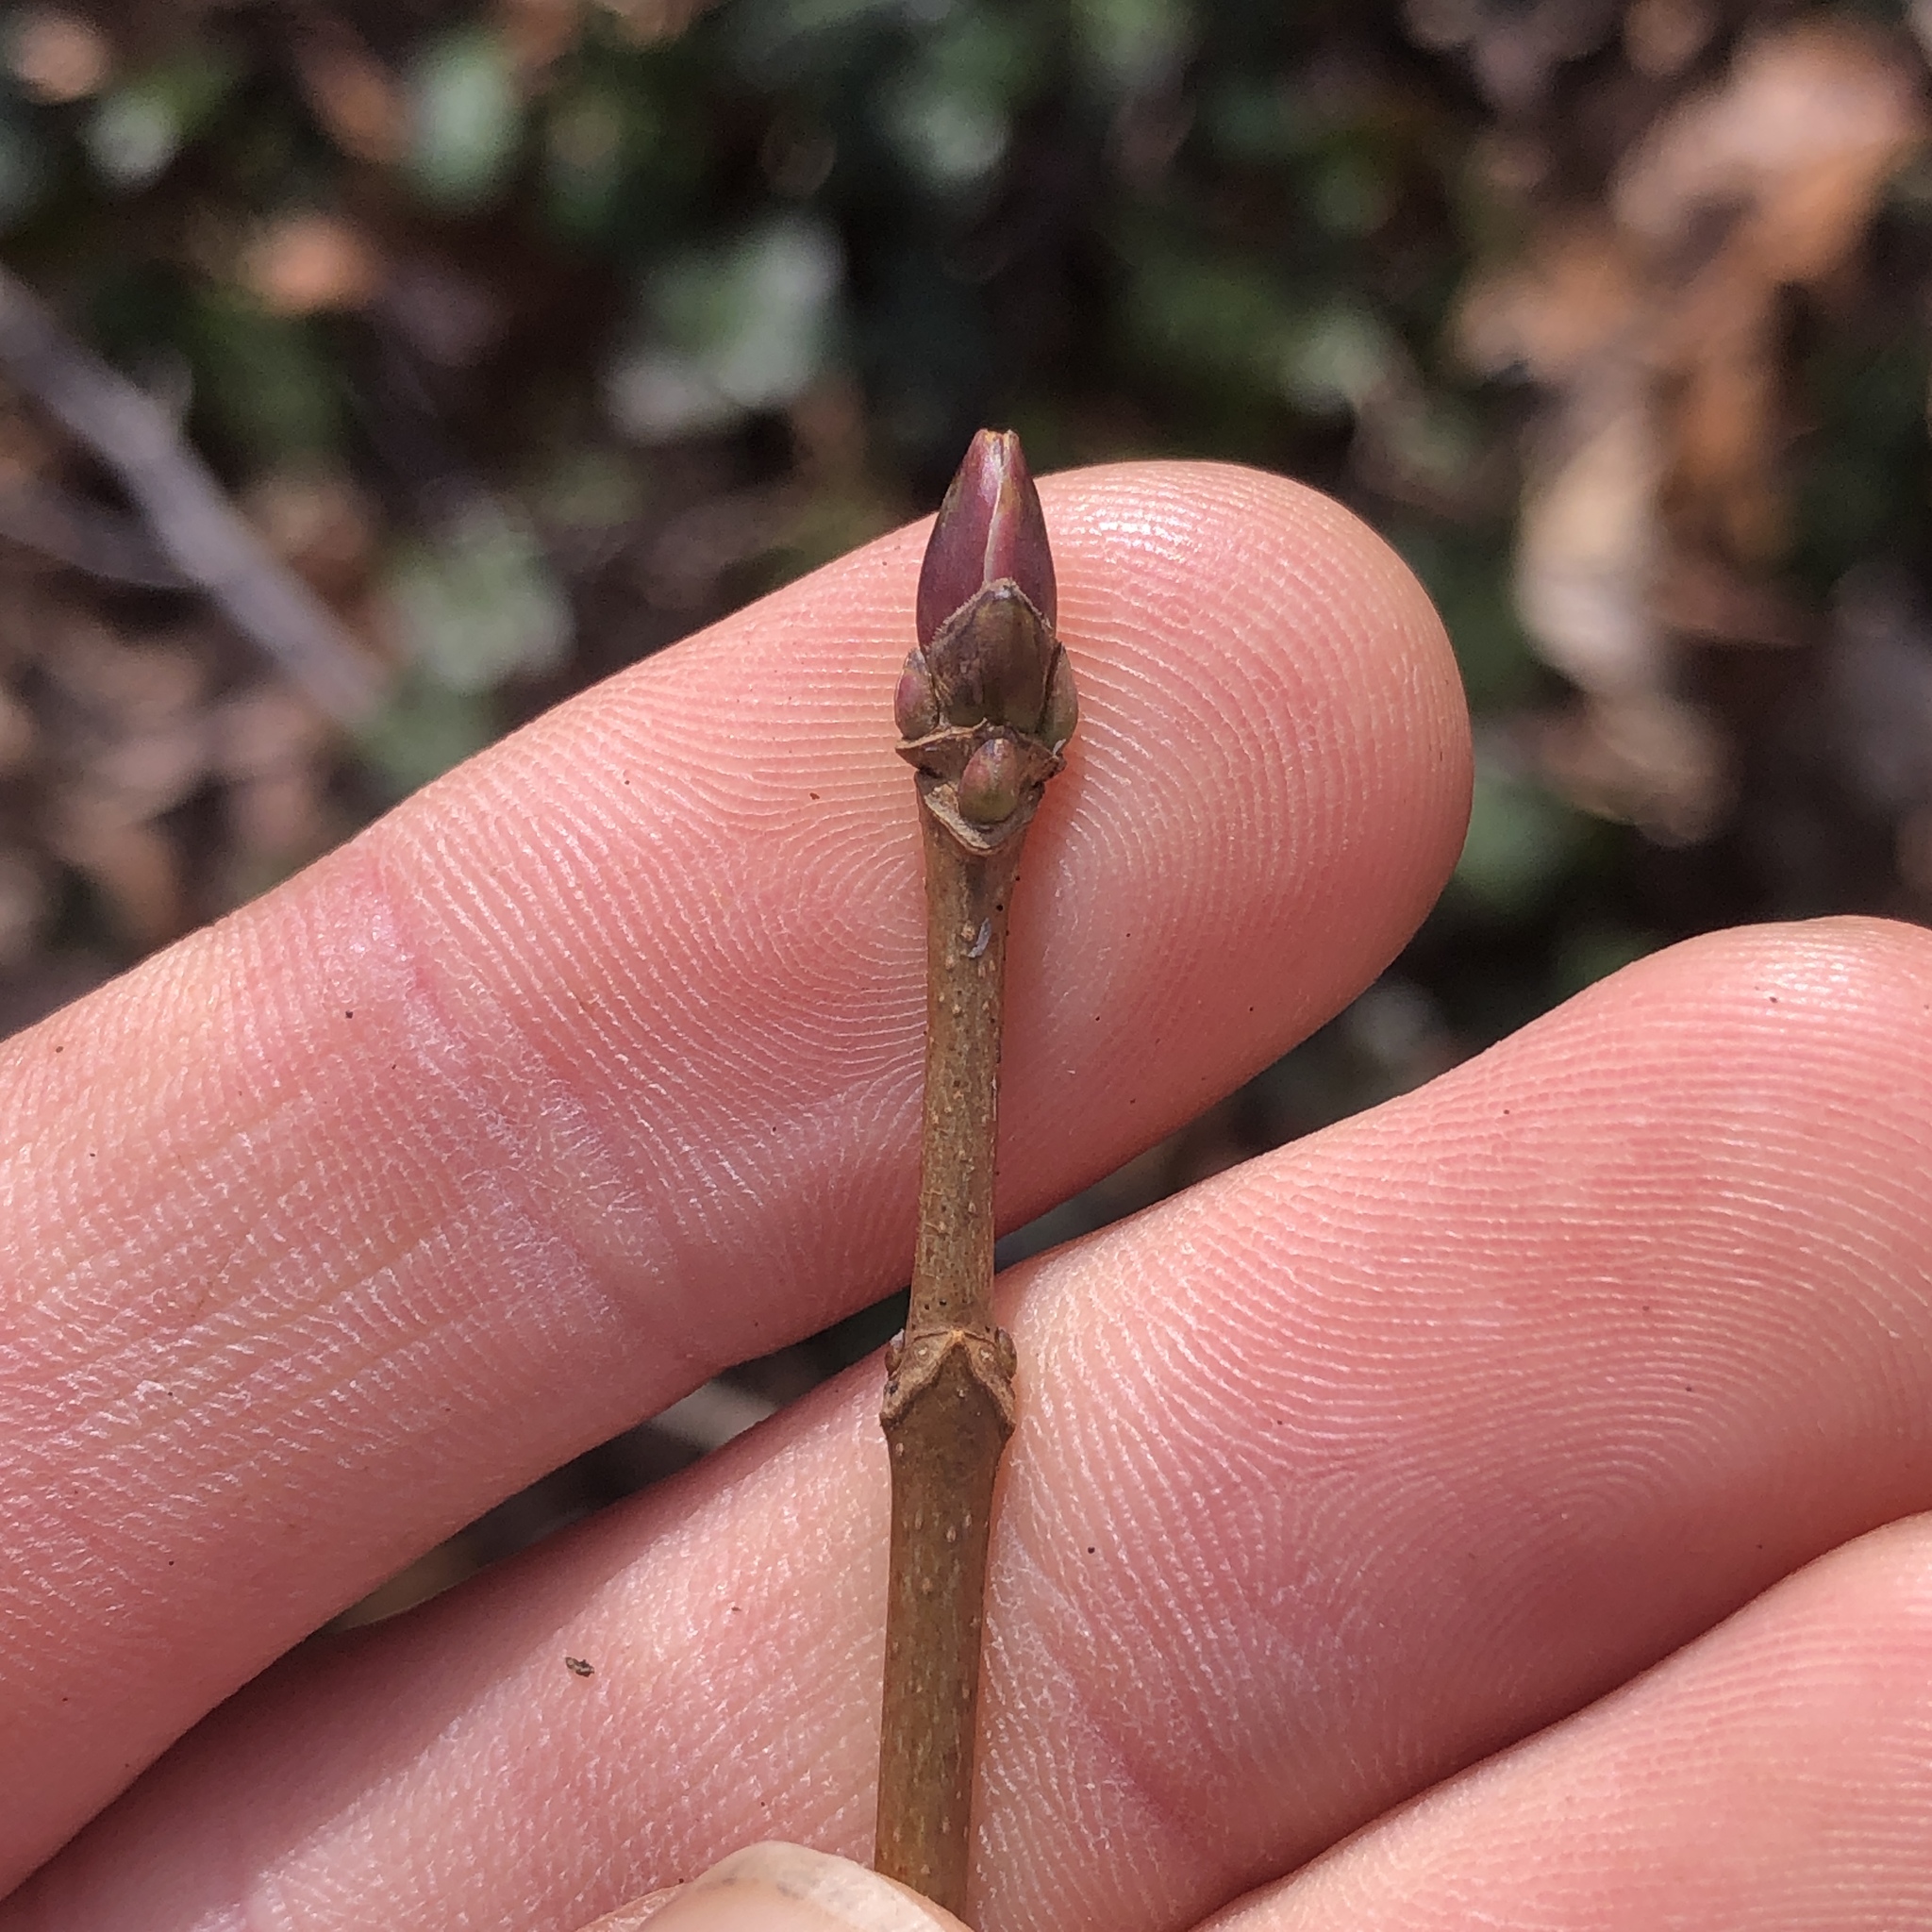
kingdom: Plantae
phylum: Tracheophyta
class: Magnoliopsida
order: Sapindales
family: Sapindaceae
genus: Acer
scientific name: Acer platanoides
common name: Norway maple
